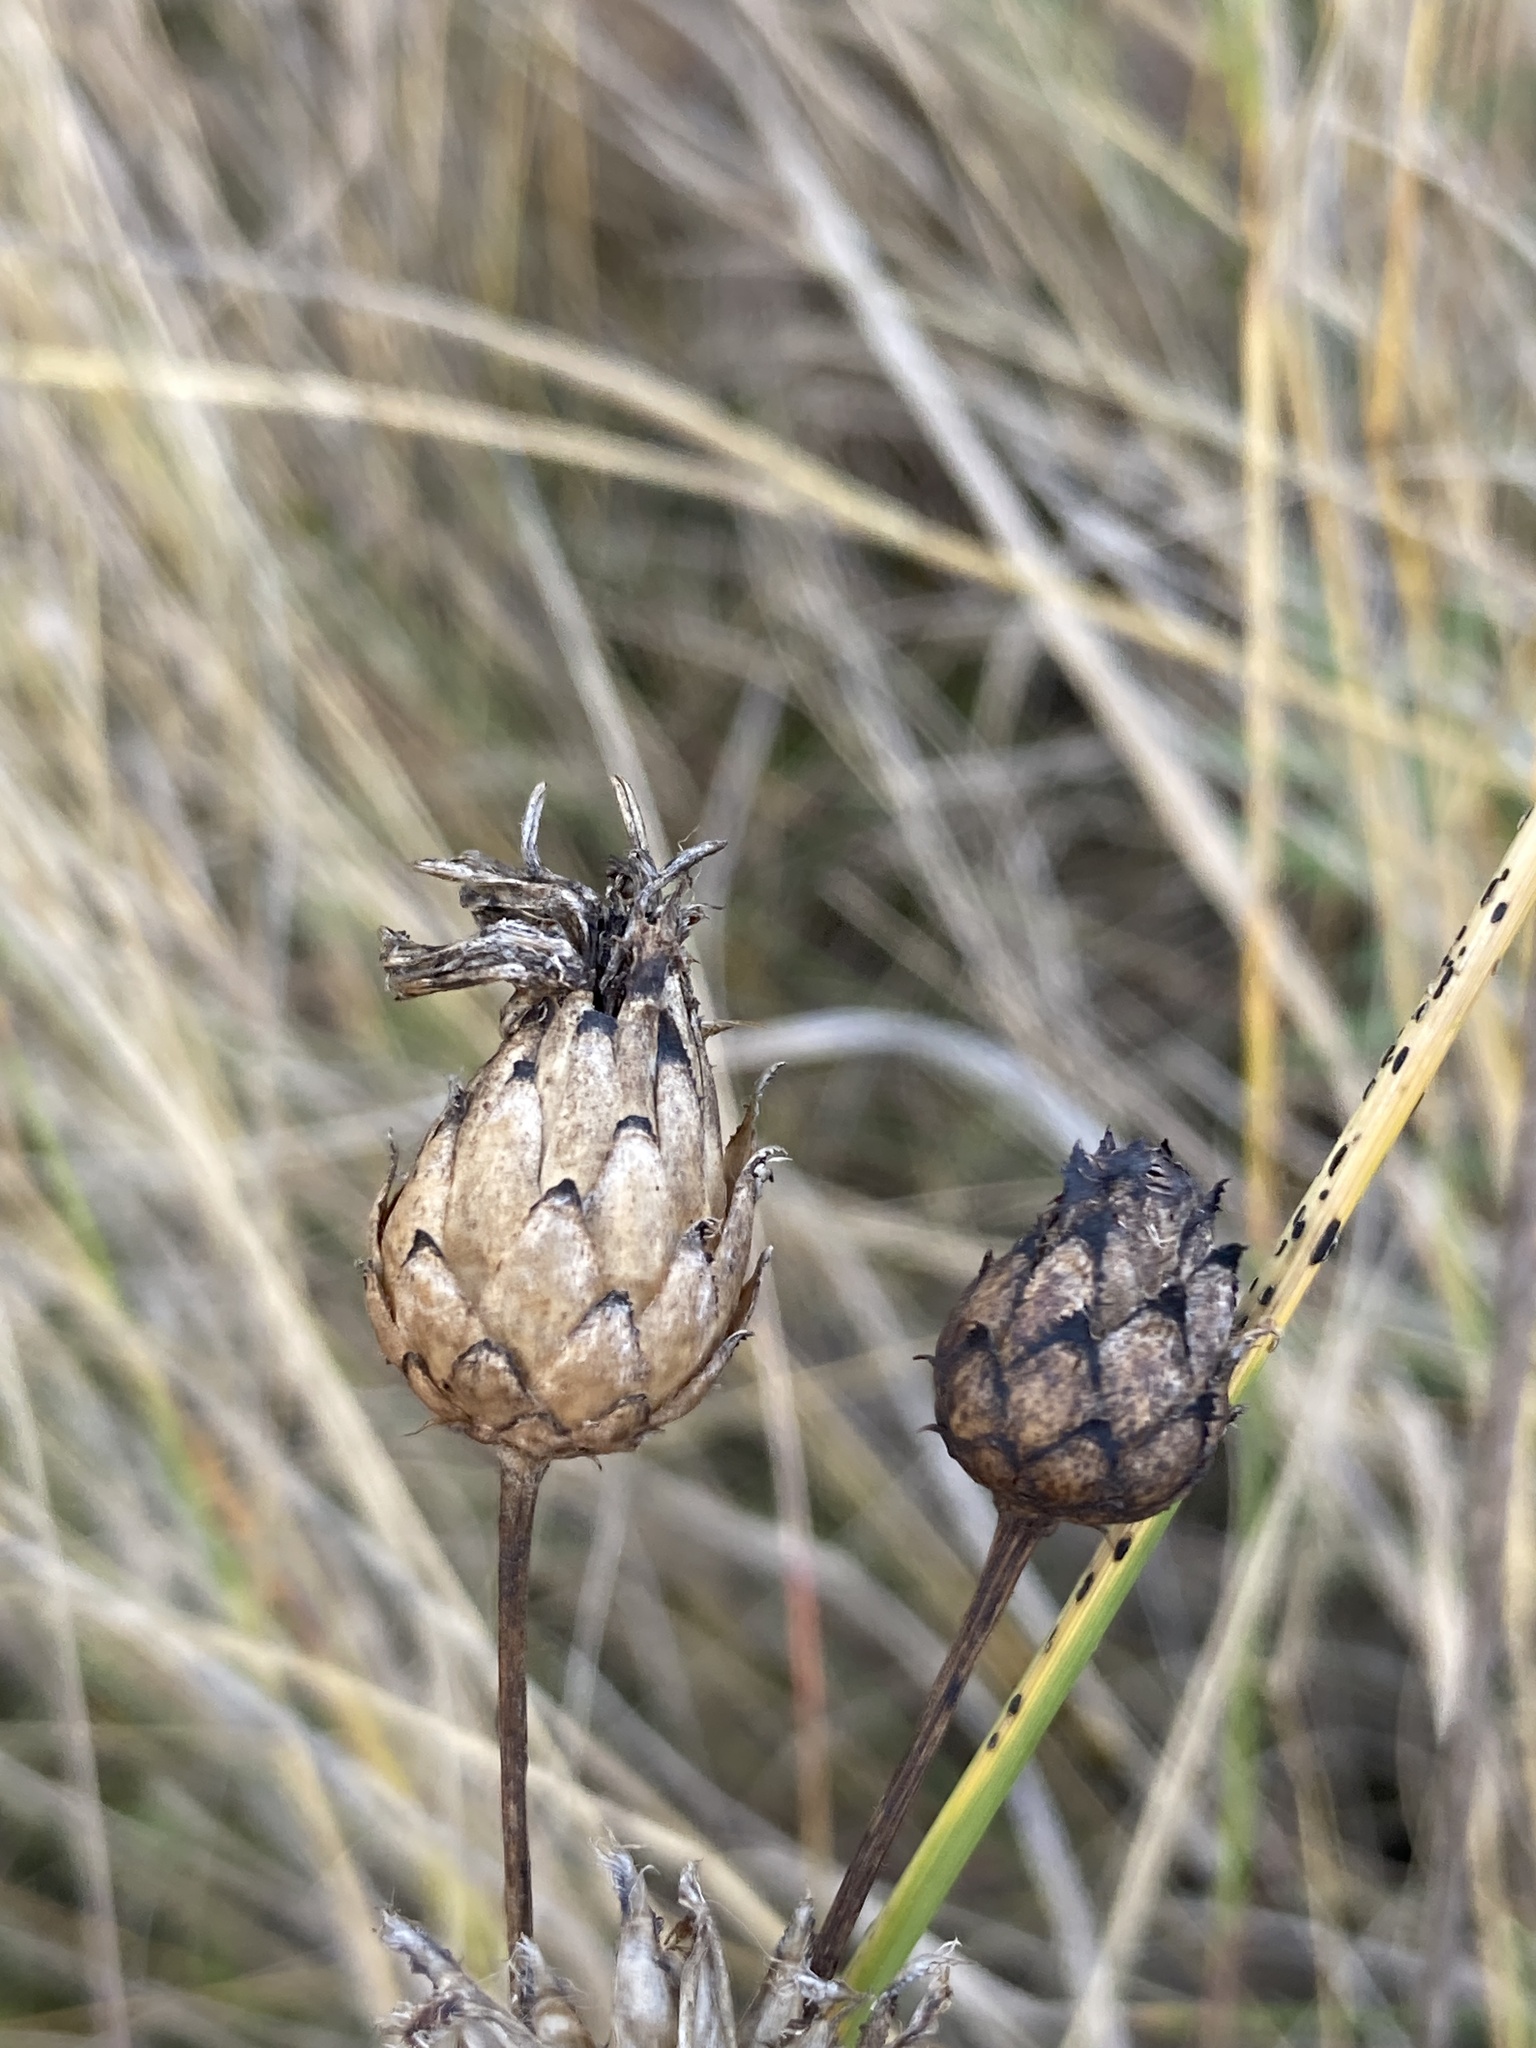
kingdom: Plantae
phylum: Tracheophyta
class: Magnoliopsida
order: Asterales
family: Asteraceae
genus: Centaurea
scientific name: Centaurea scabiosa
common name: Greater knapweed
